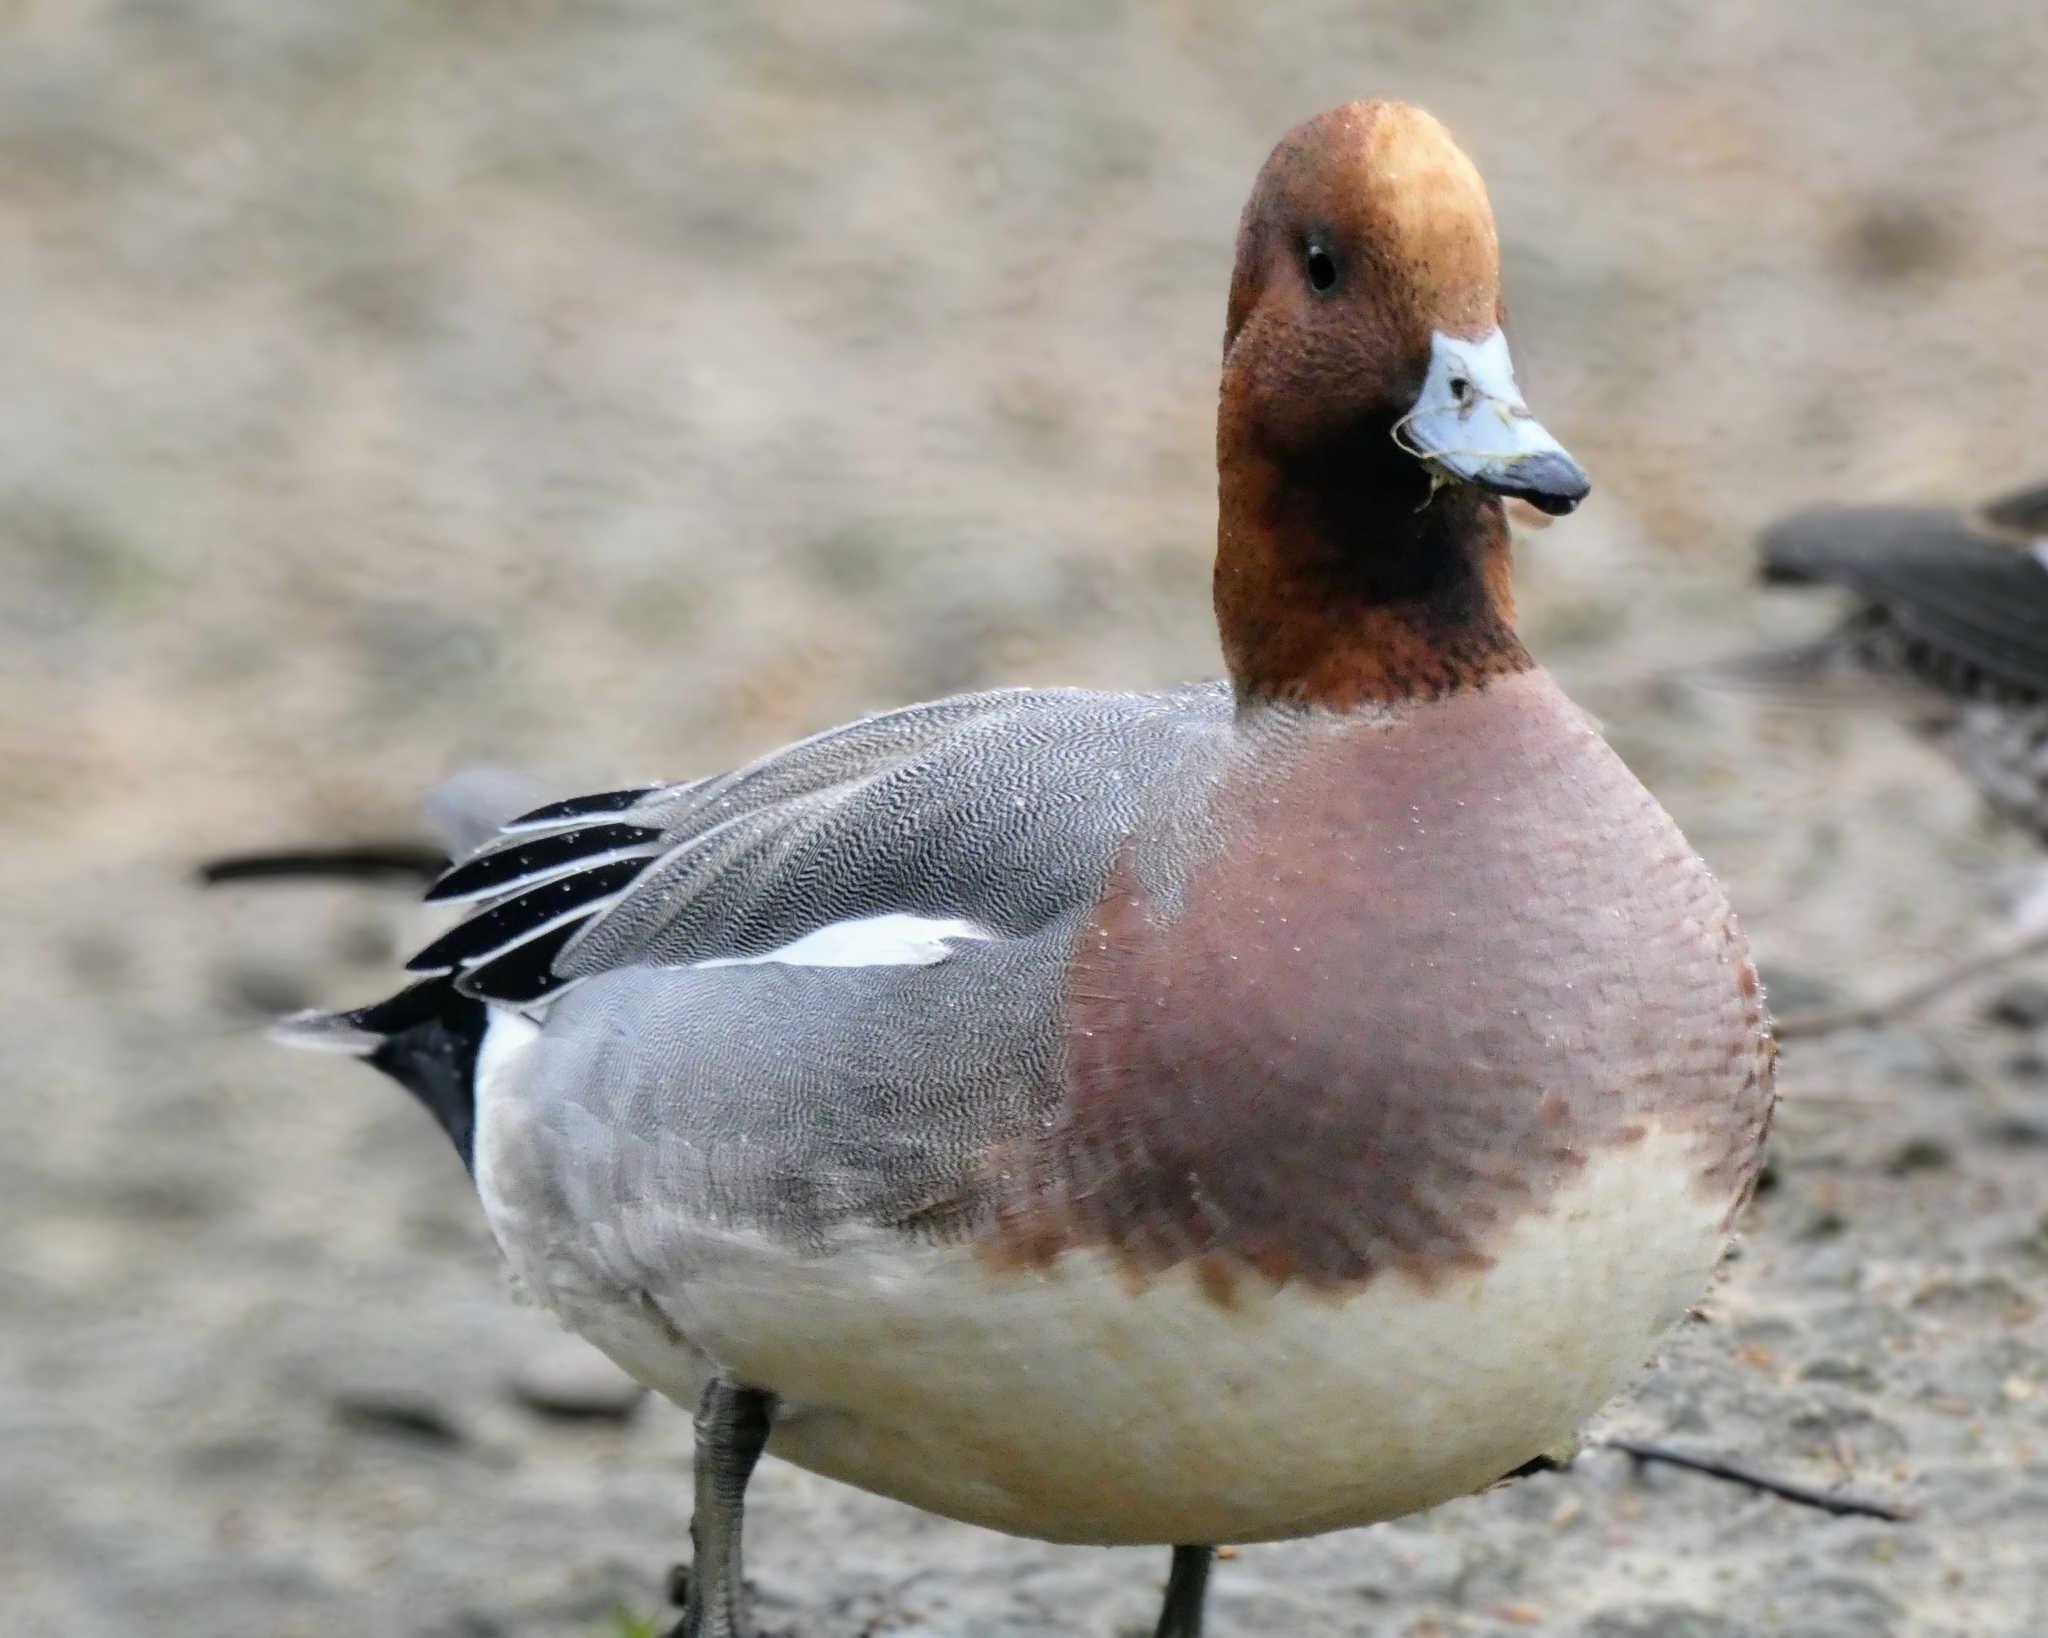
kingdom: Animalia
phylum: Chordata
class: Aves
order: Anseriformes
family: Anatidae
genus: Mareca
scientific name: Mareca penelope
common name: Eurasian wigeon
